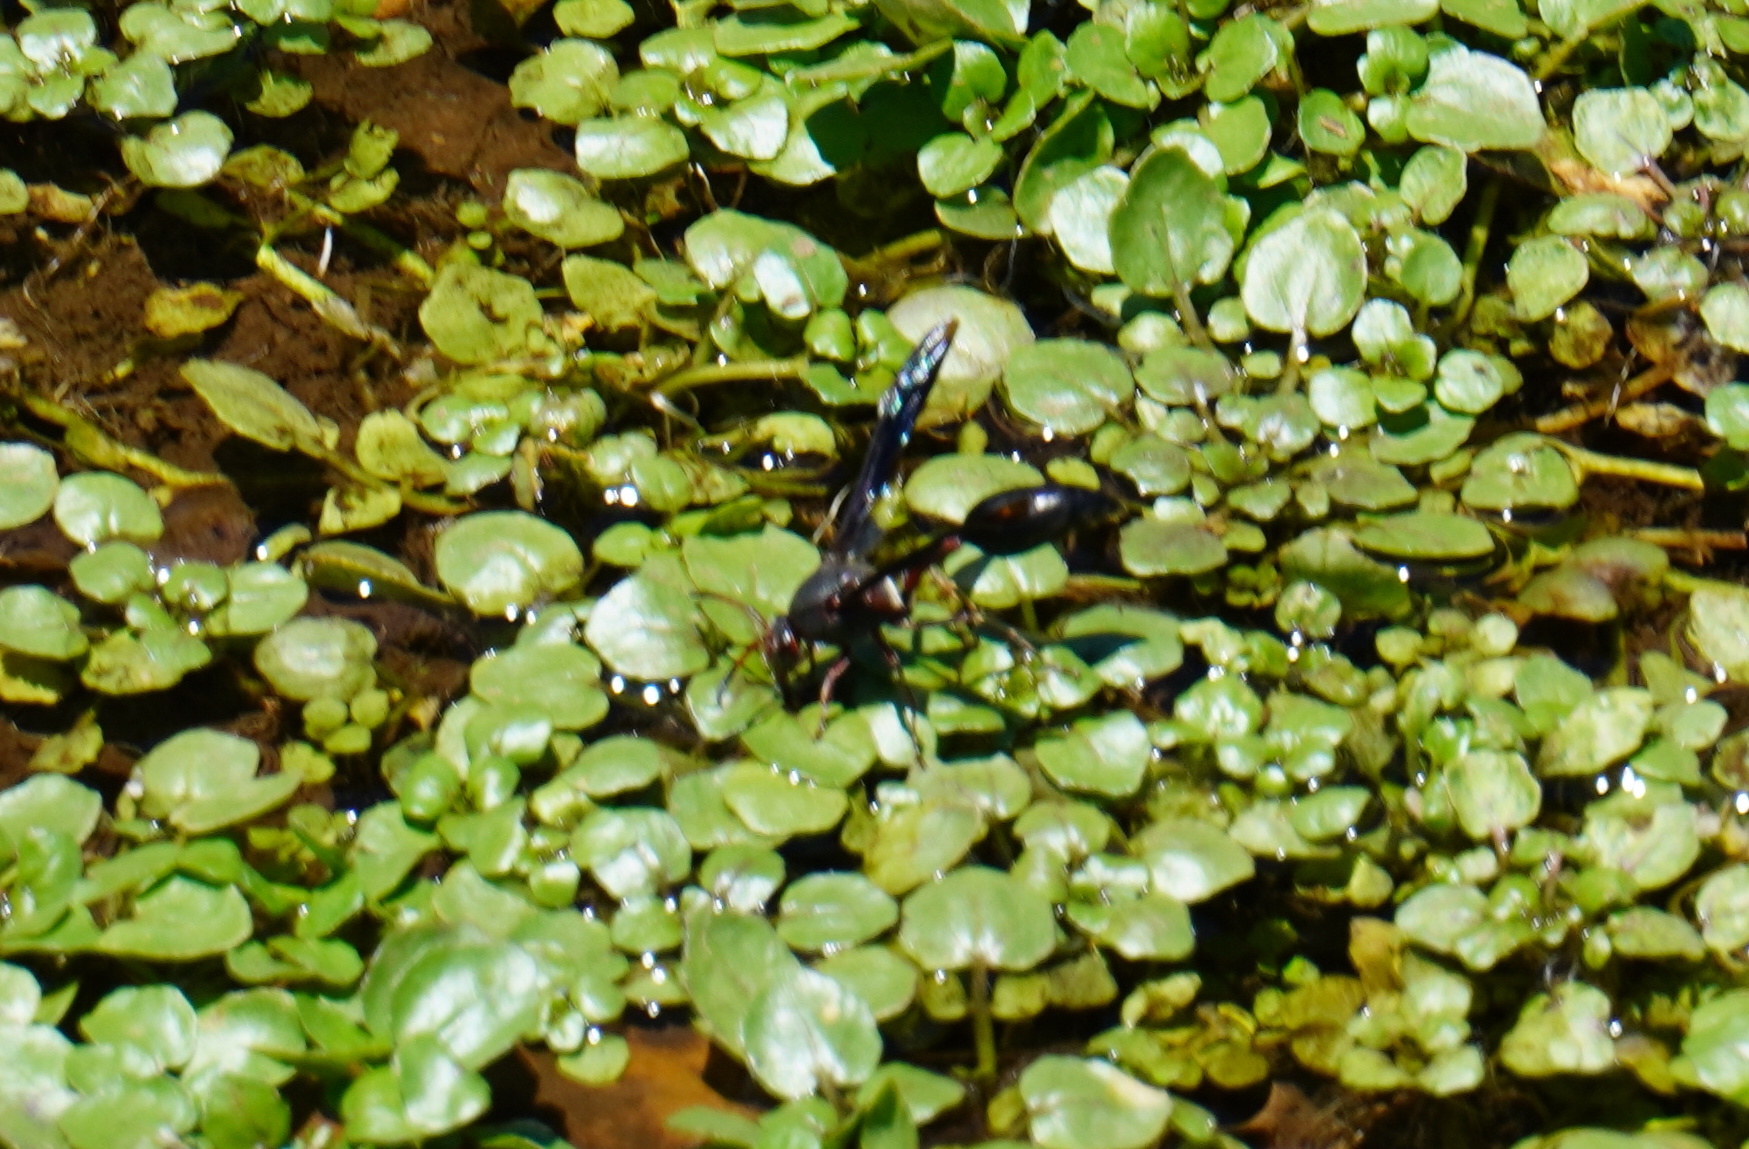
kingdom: Animalia
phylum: Arthropoda
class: Insecta
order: Hymenoptera
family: Eumenidae
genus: Delta
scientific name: Delta emarginatum
